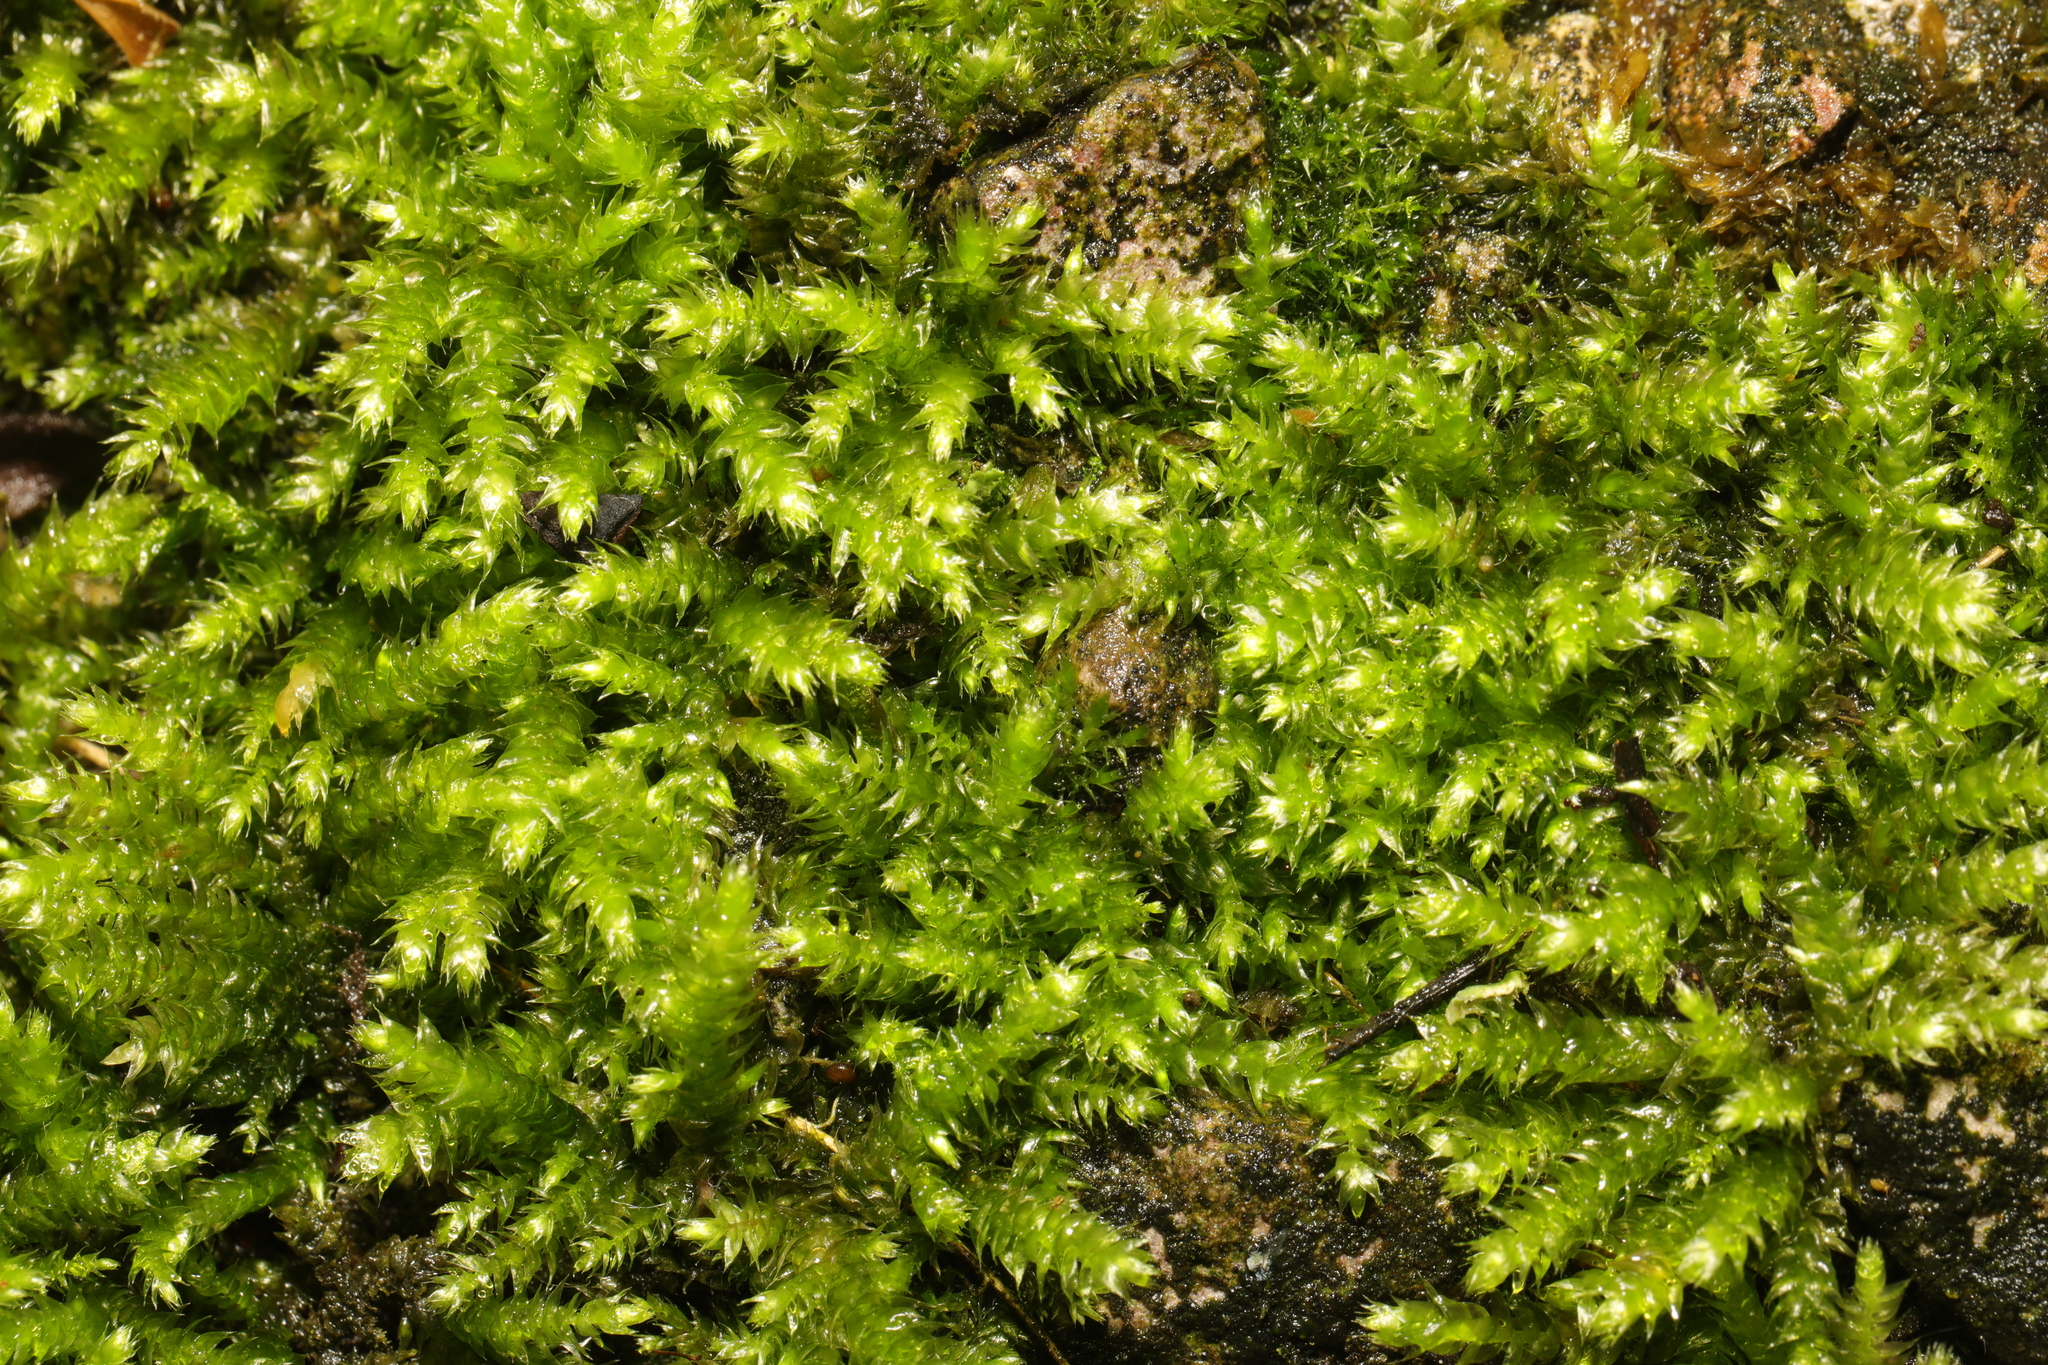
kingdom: Plantae
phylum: Bryophyta
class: Bryopsida
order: Hypnales
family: Brachytheciaceae
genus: Brachythecium
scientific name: Brachythecium rutabulum
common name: Rough-stalked feather-moss
